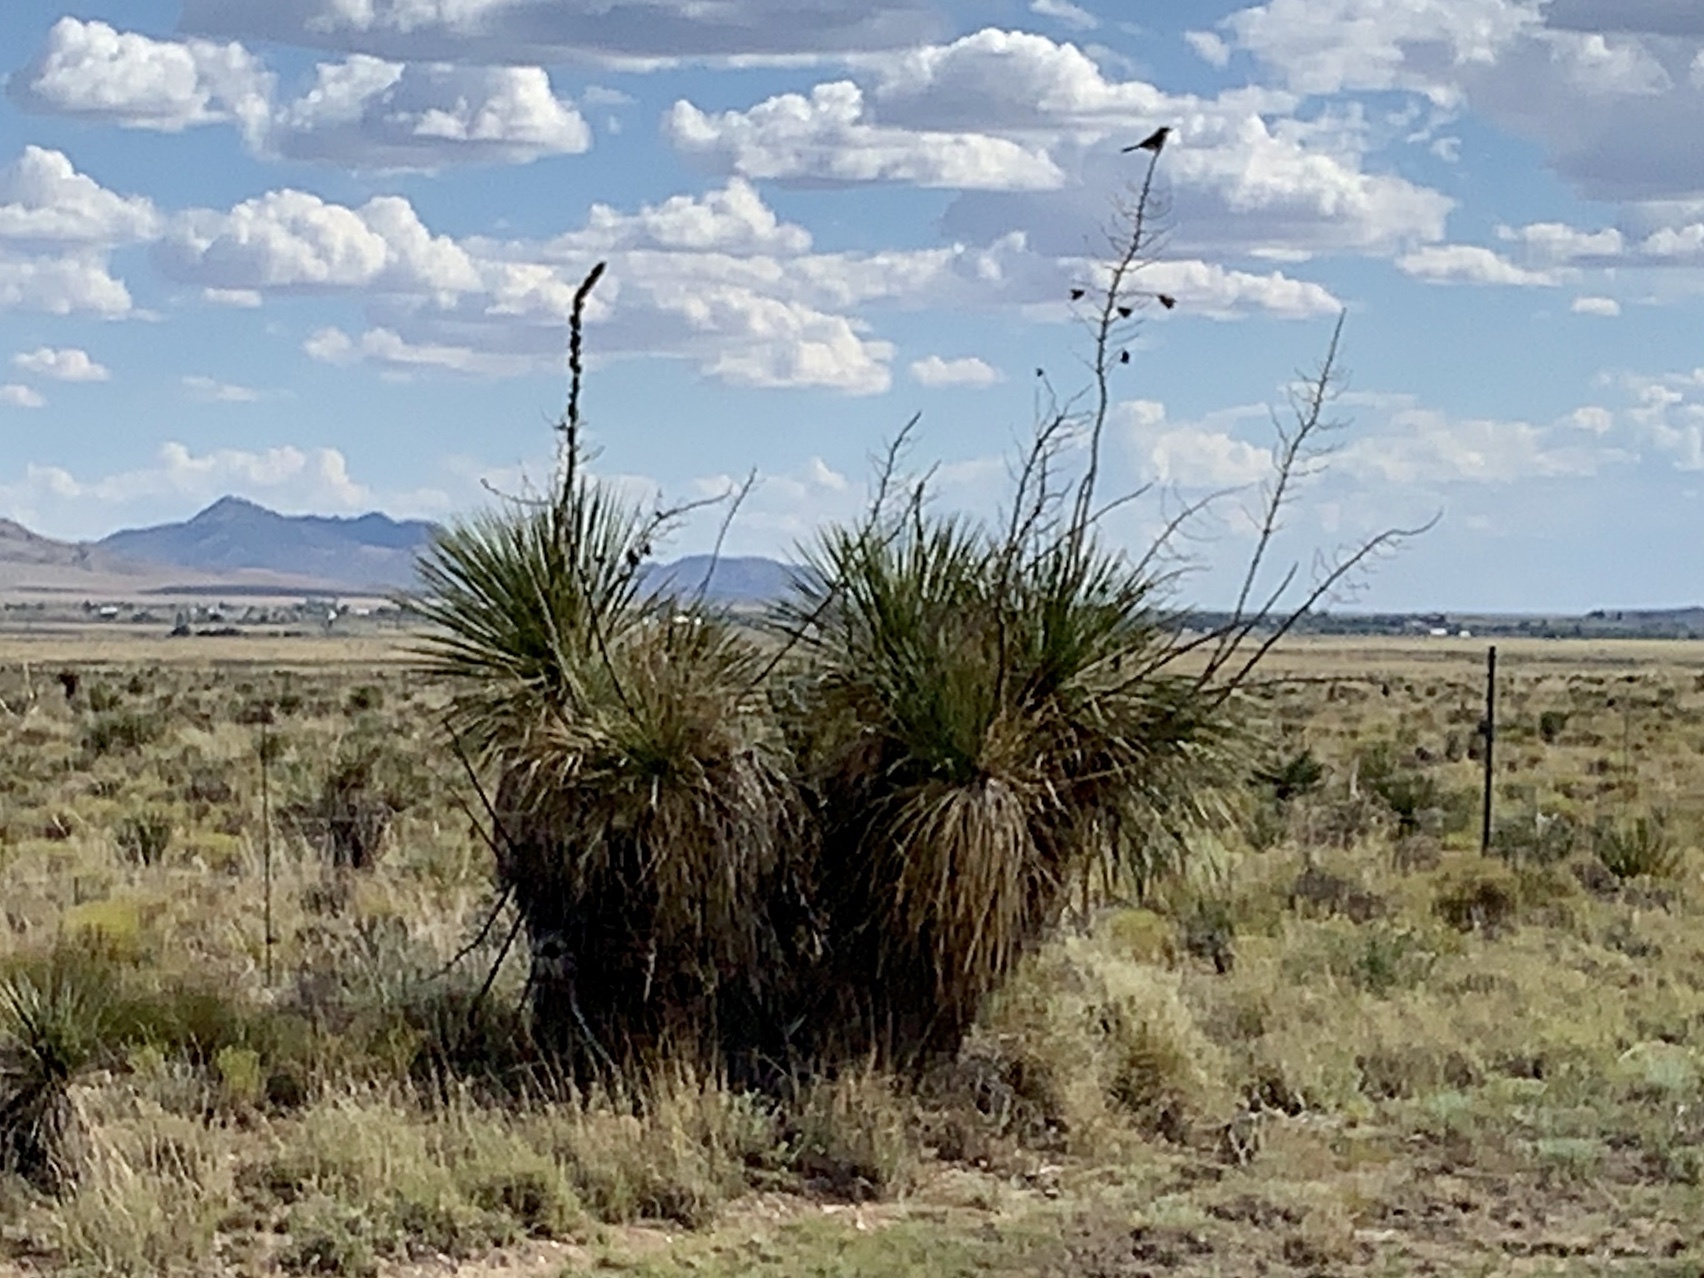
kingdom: Plantae
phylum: Tracheophyta
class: Liliopsida
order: Asparagales
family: Asparagaceae
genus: Yucca
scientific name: Yucca elata
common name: Palmella
